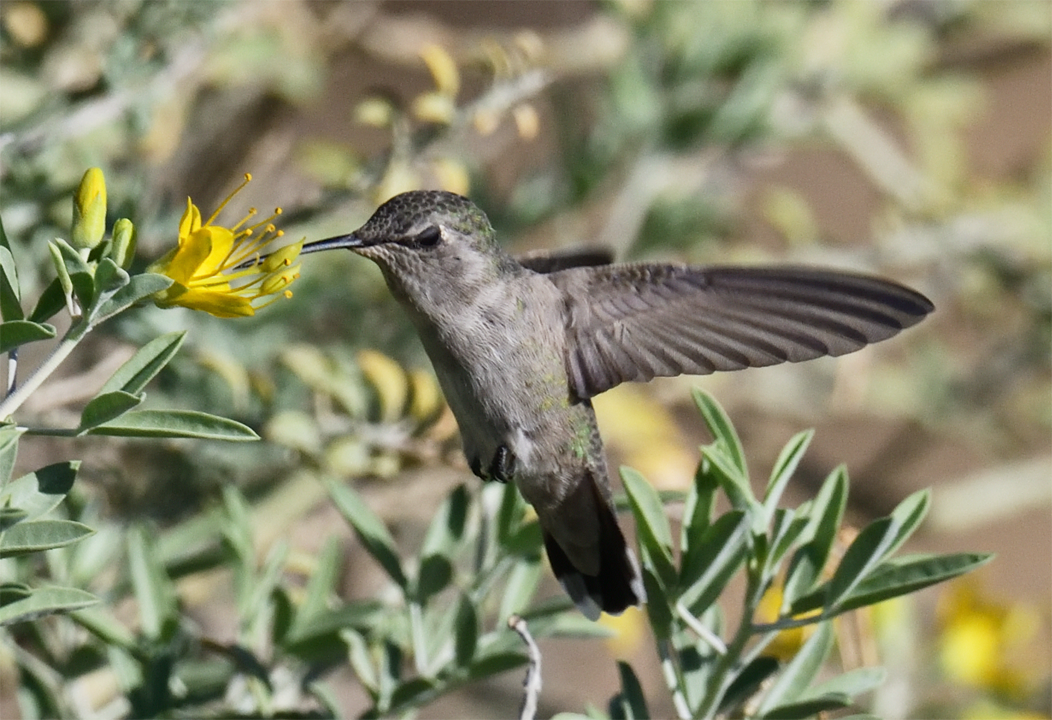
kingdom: Animalia
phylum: Chordata
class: Aves
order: Apodiformes
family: Trochilidae
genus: Calypte
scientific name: Calypte costae
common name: Costa's hummingbird
